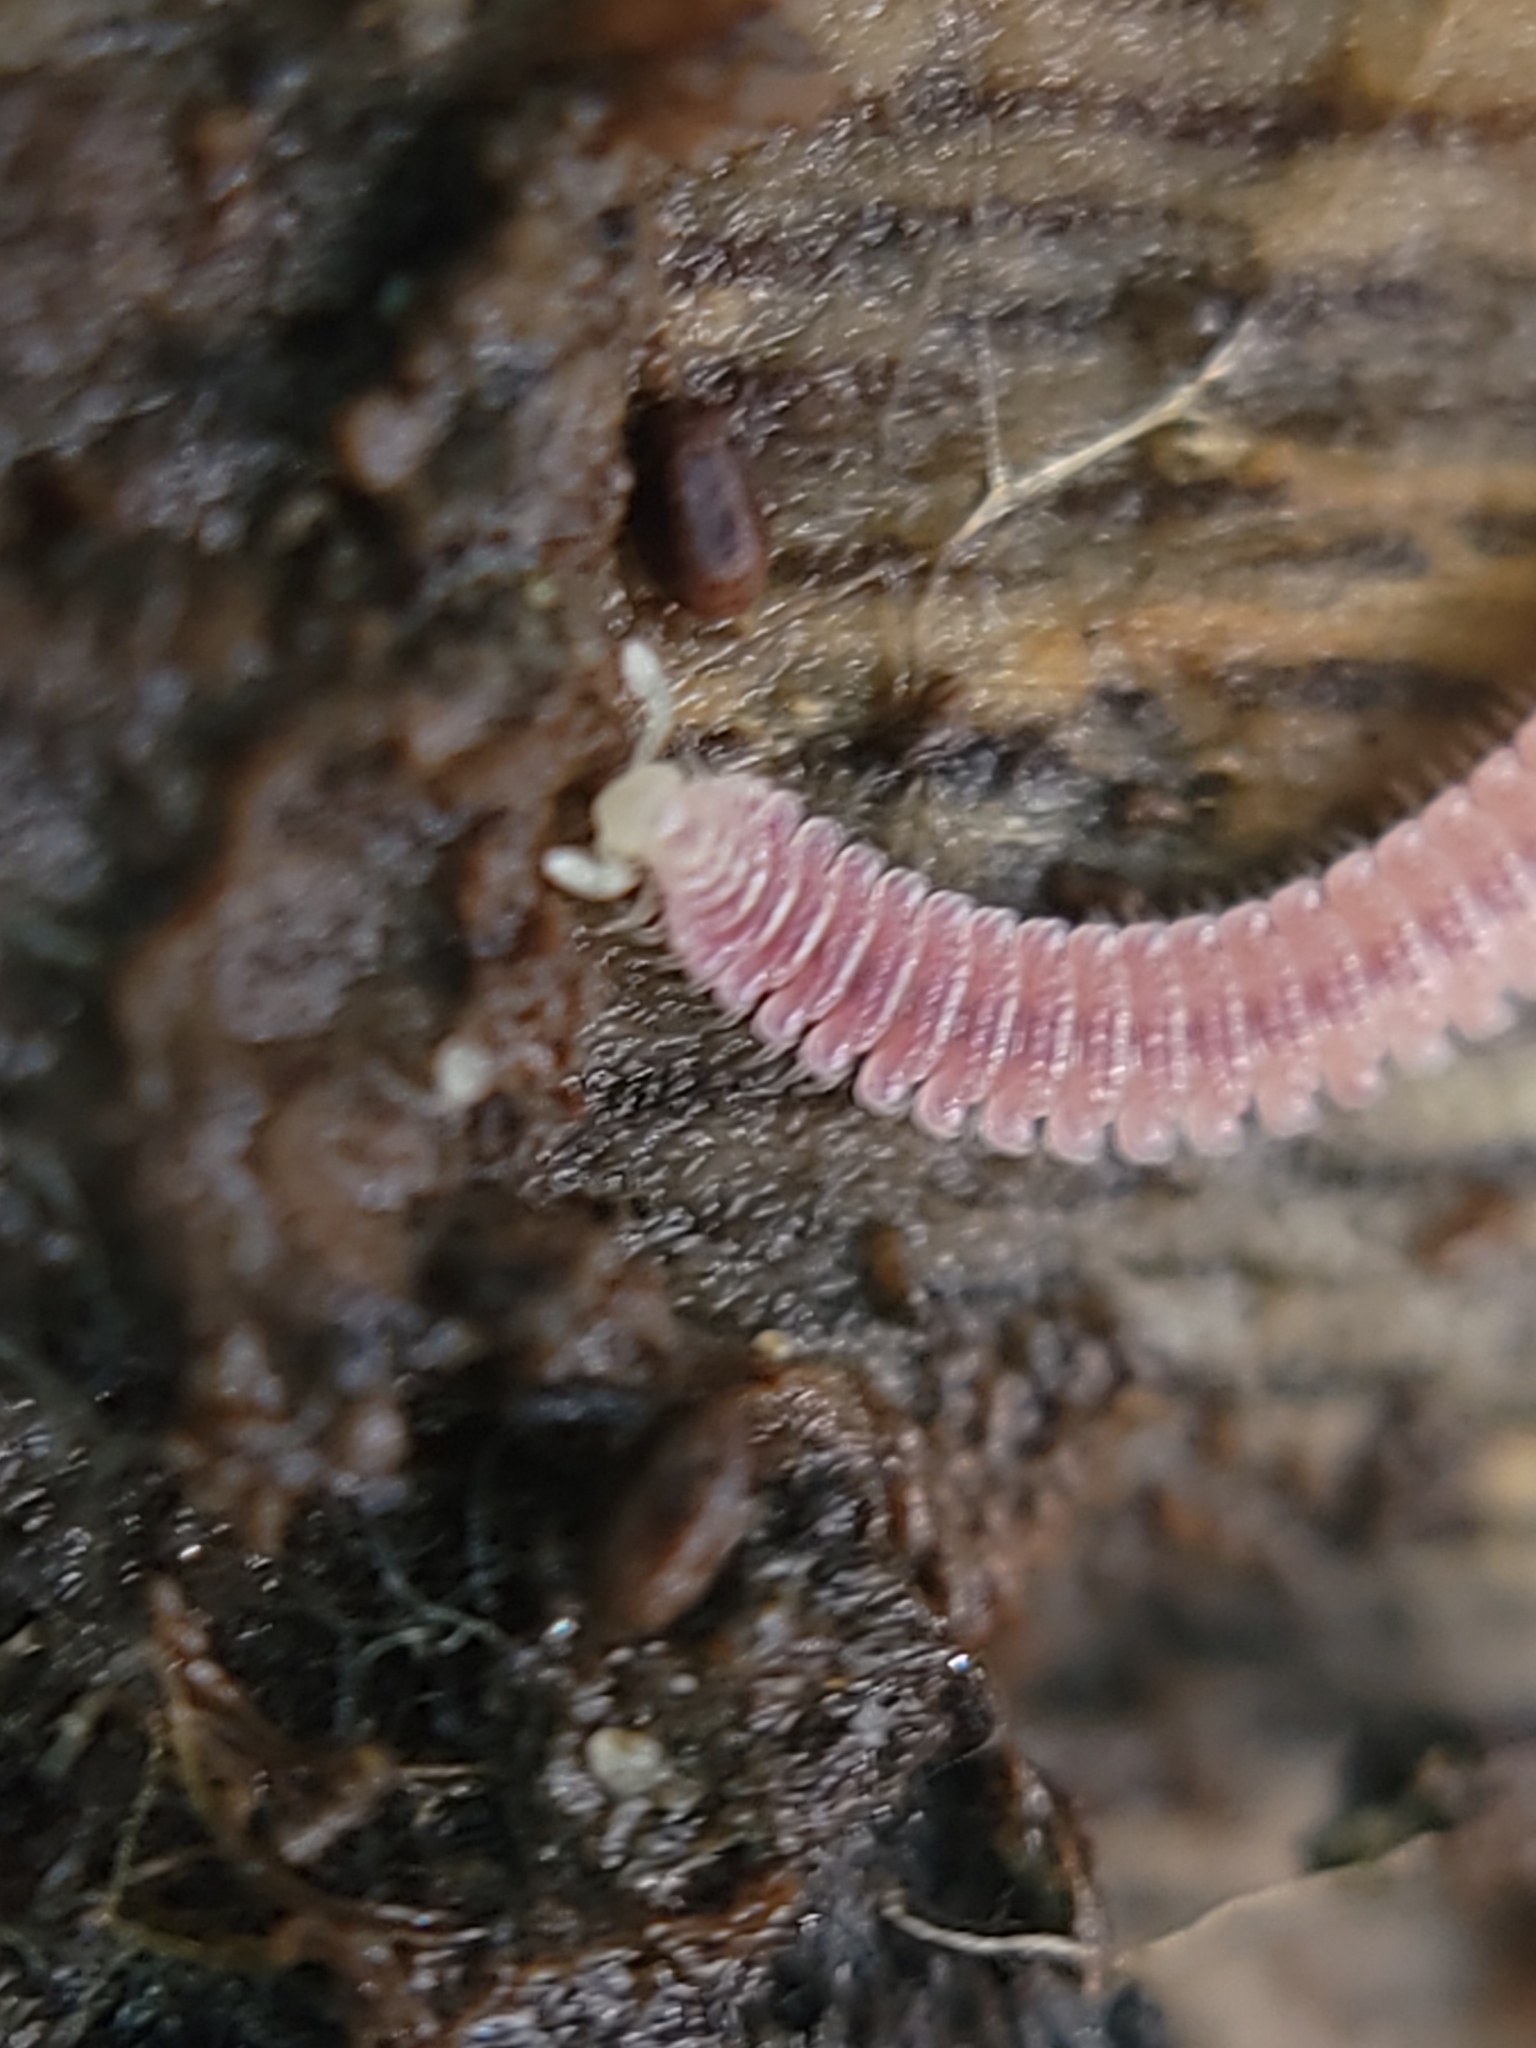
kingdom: Animalia
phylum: Arthropoda
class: Diplopoda
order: Platydesmida
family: Andrognathidae
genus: Gosodesmus
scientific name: Gosodesmus claremontus
